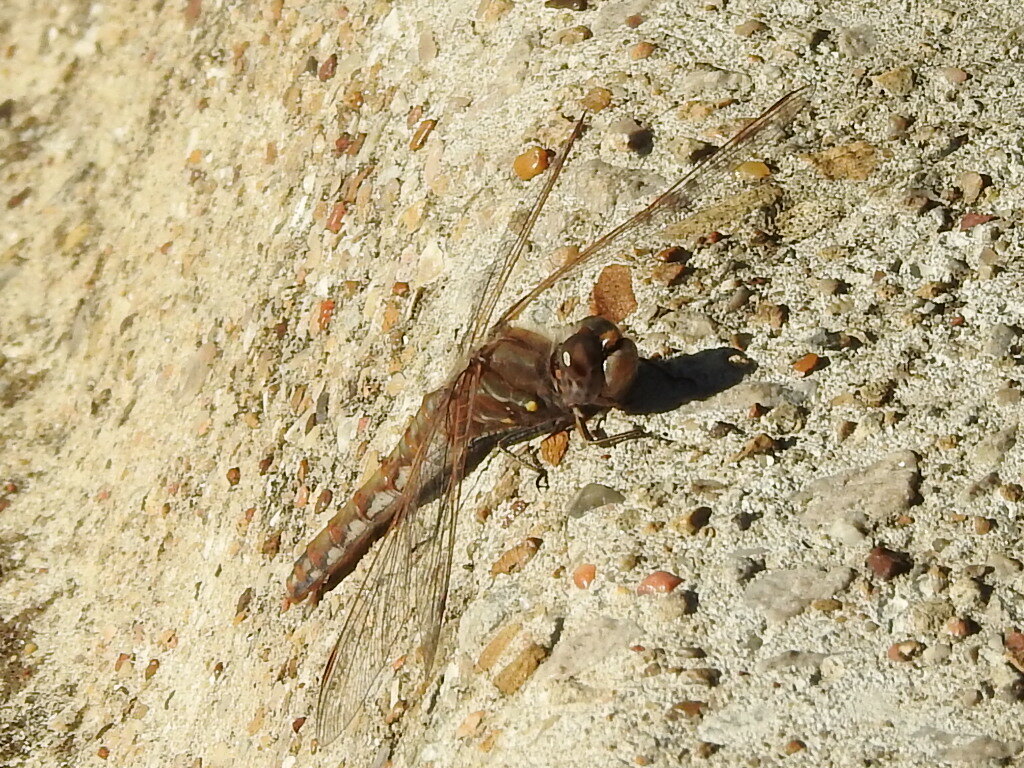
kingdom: Animalia
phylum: Arthropoda
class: Insecta
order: Odonata
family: Libellulidae
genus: Sympetrum
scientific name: Sympetrum corruptum
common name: Variegated meadowhawk
